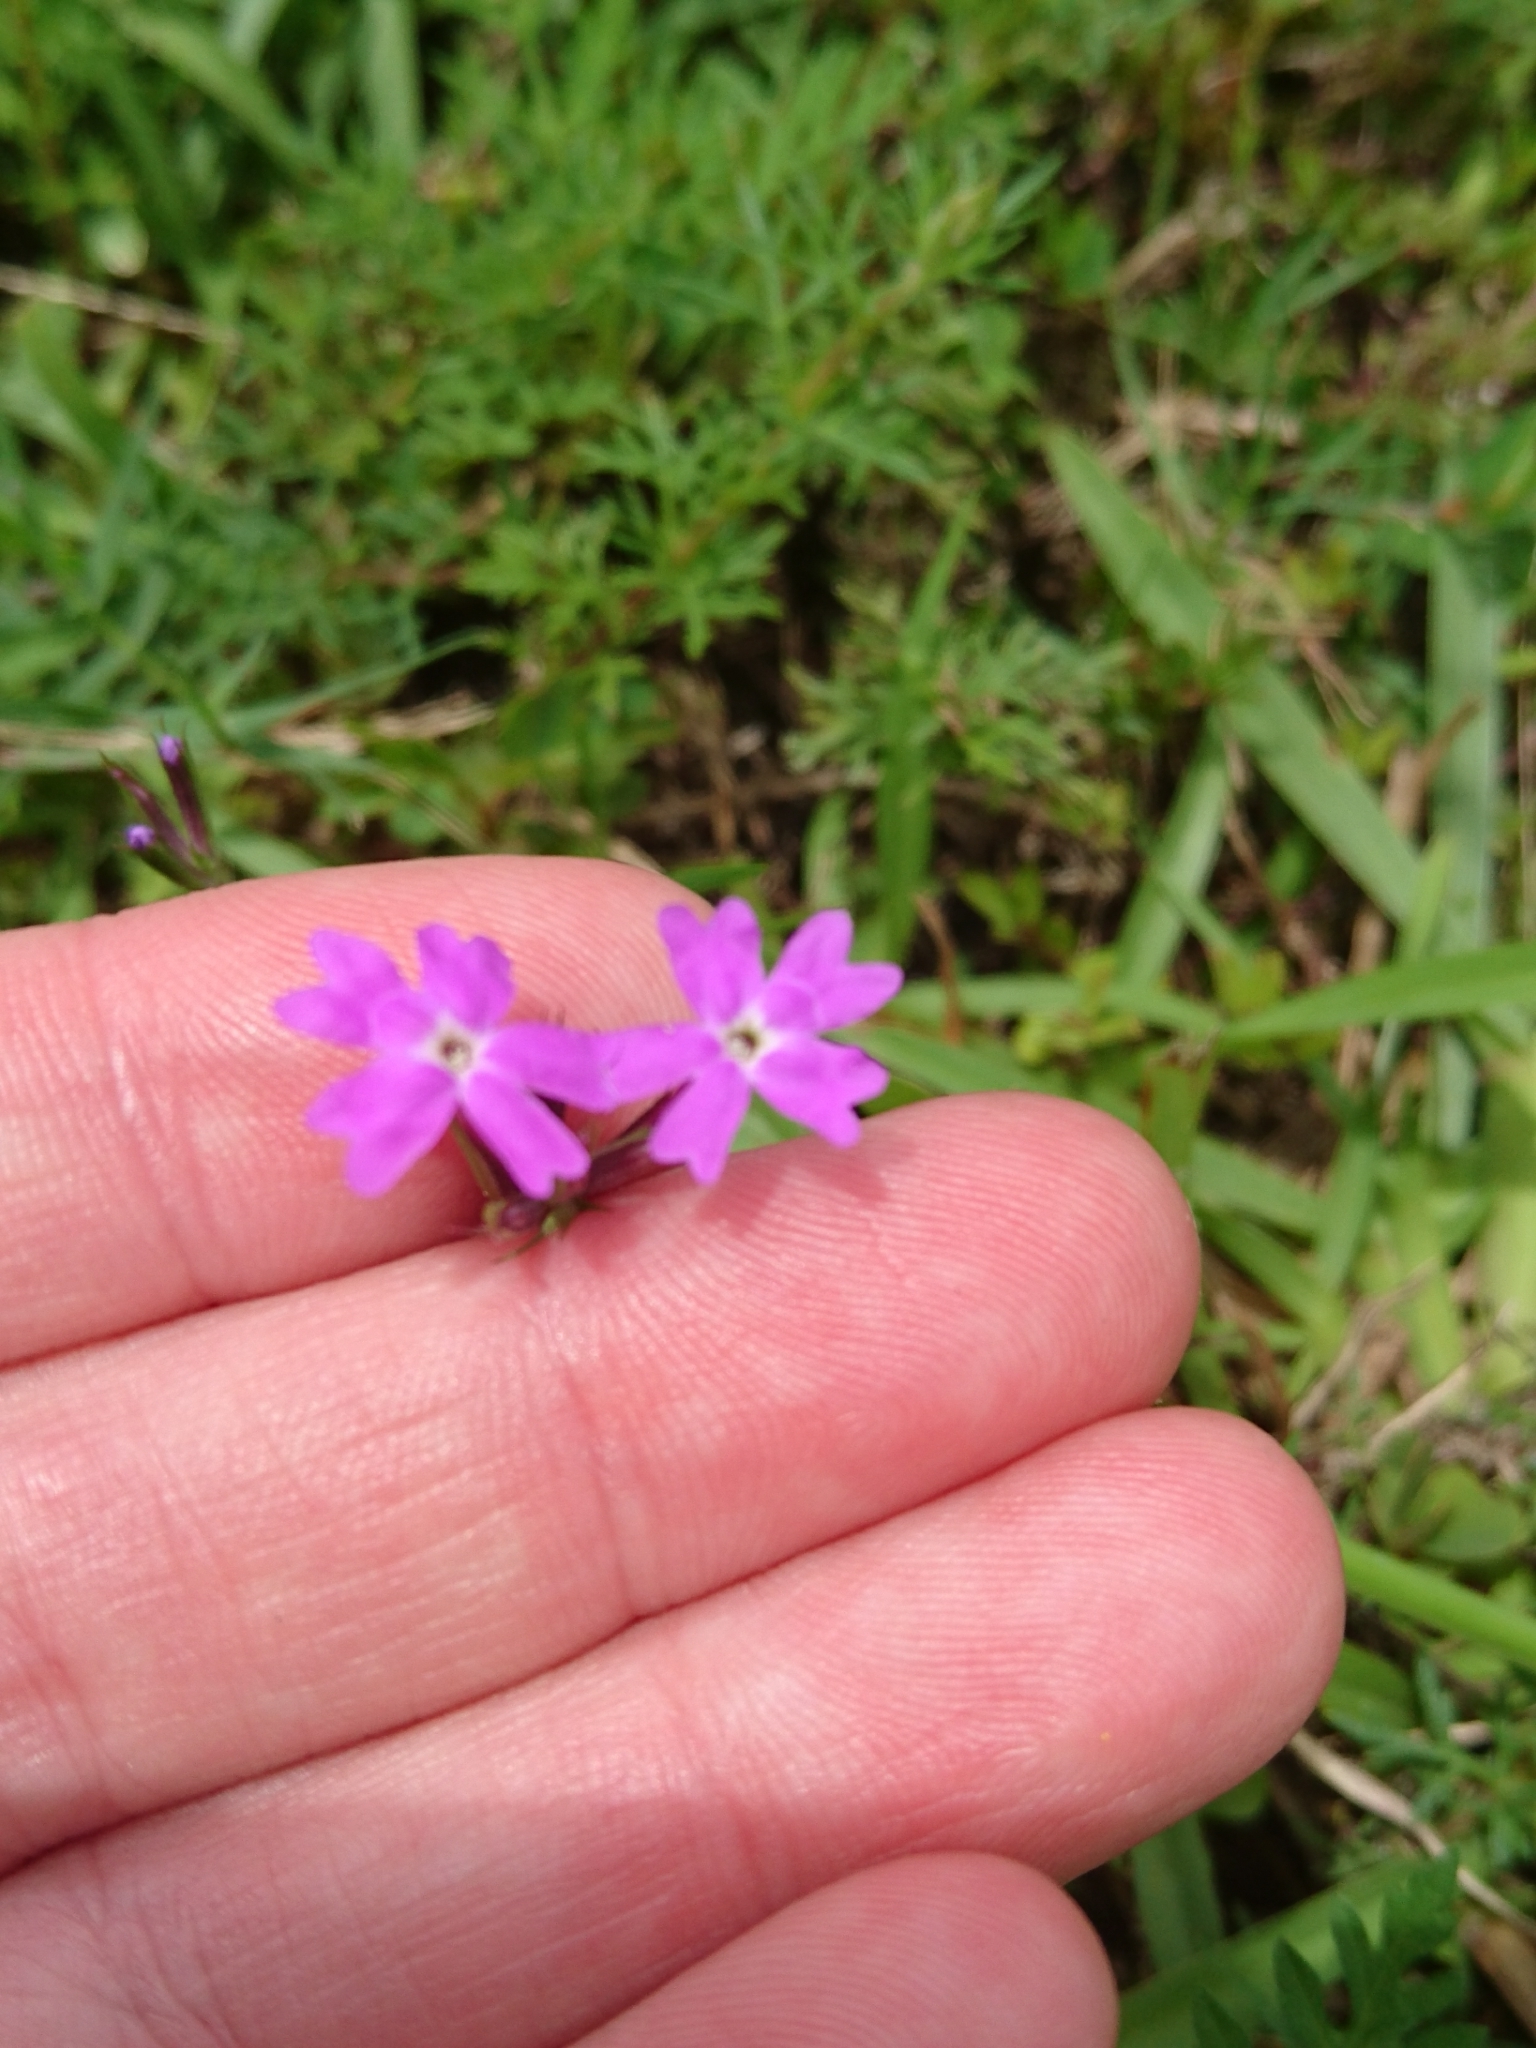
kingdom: Plantae
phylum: Tracheophyta
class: Magnoliopsida
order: Lamiales
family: Verbenaceae
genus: Verbena
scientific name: Verbena aristigera
